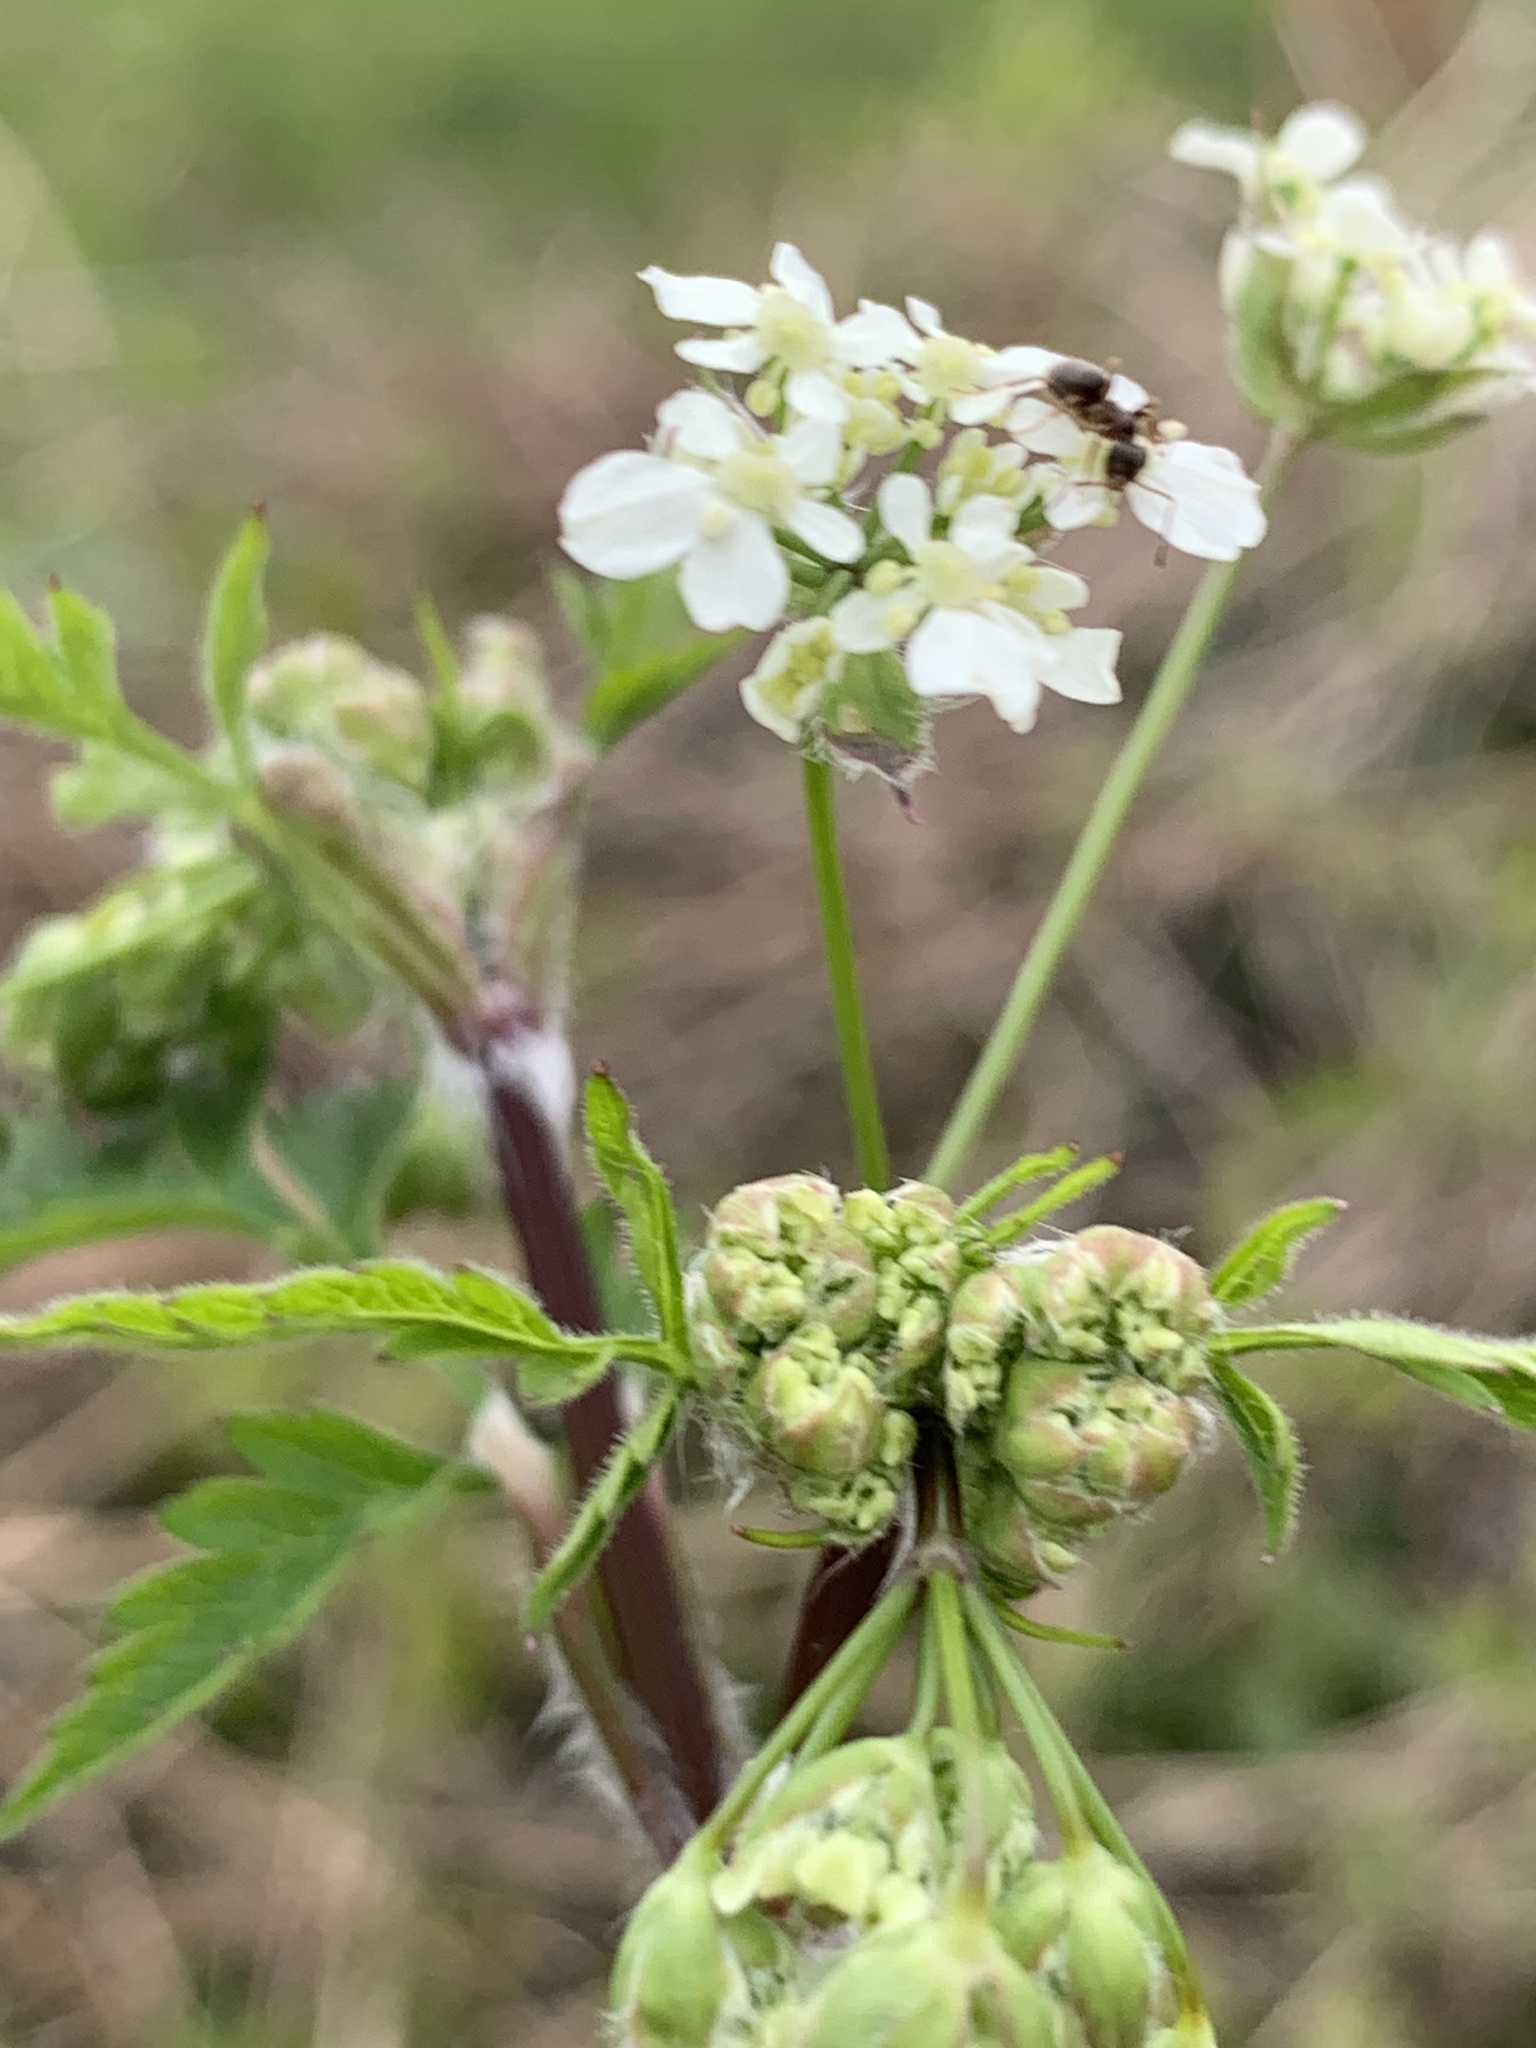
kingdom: Plantae
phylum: Tracheophyta
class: Magnoliopsida
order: Apiales
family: Apiaceae
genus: Anthriscus
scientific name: Anthriscus sylvestris
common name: Cow parsley
